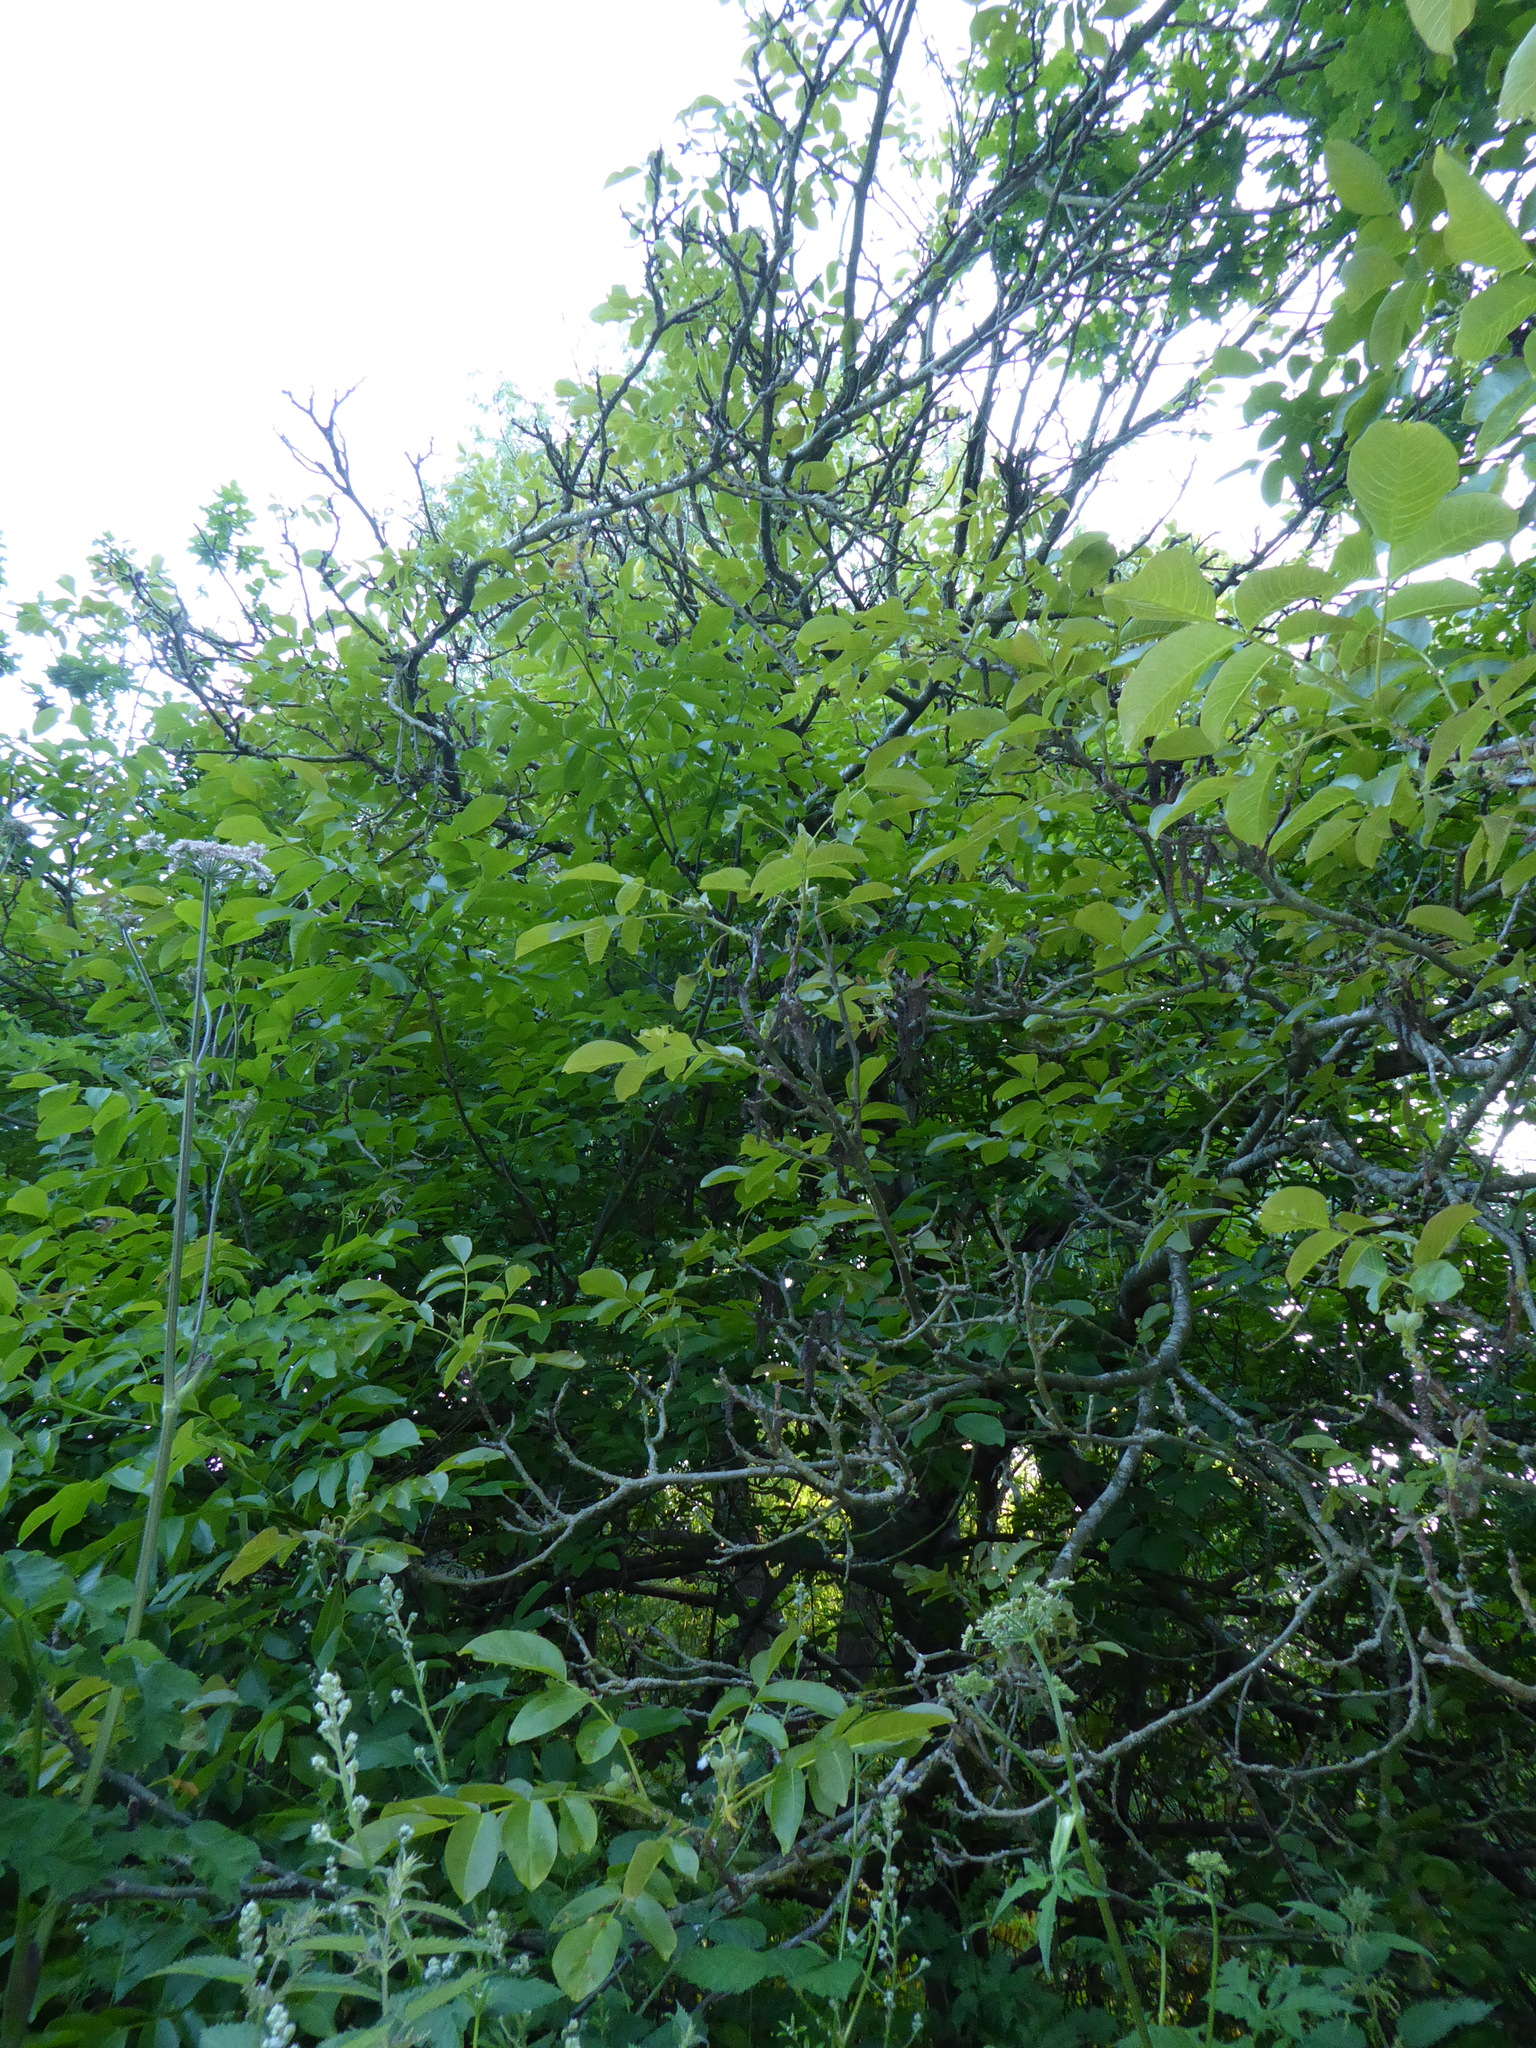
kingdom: Plantae
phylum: Tracheophyta
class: Magnoliopsida
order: Fagales
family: Juglandaceae
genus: Juglans
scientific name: Juglans regia
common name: Walnut
